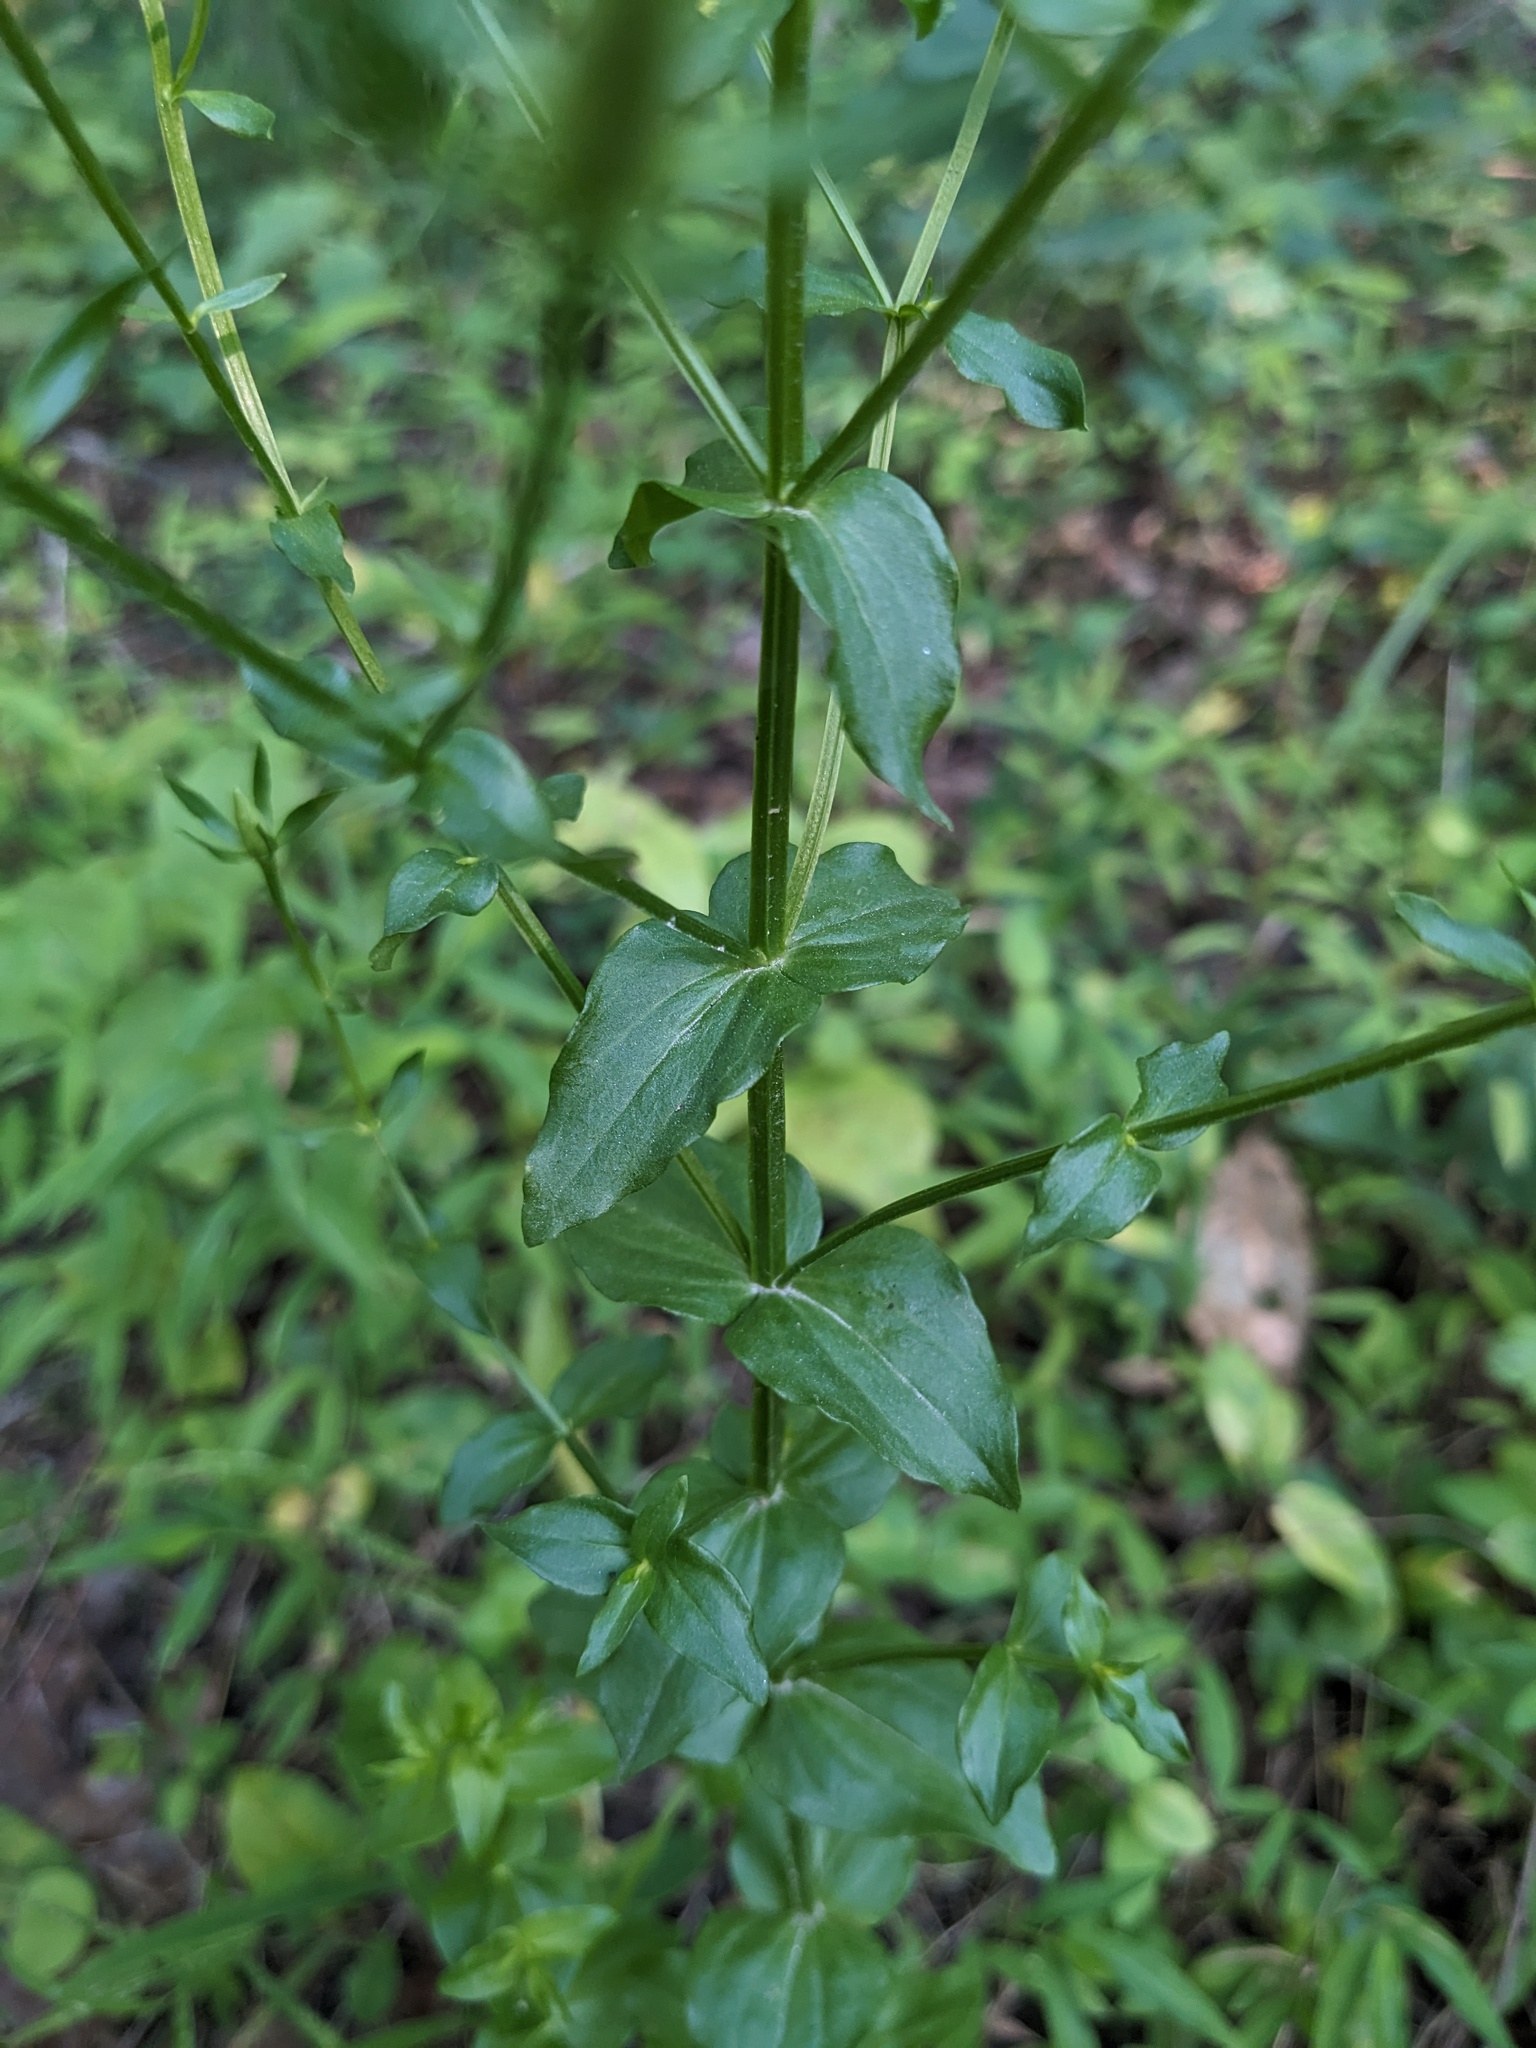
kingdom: Plantae
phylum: Tracheophyta
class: Magnoliopsida
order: Gentianales
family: Gentianaceae
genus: Sabatia
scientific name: Sabatia angularis
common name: Rose-pink
